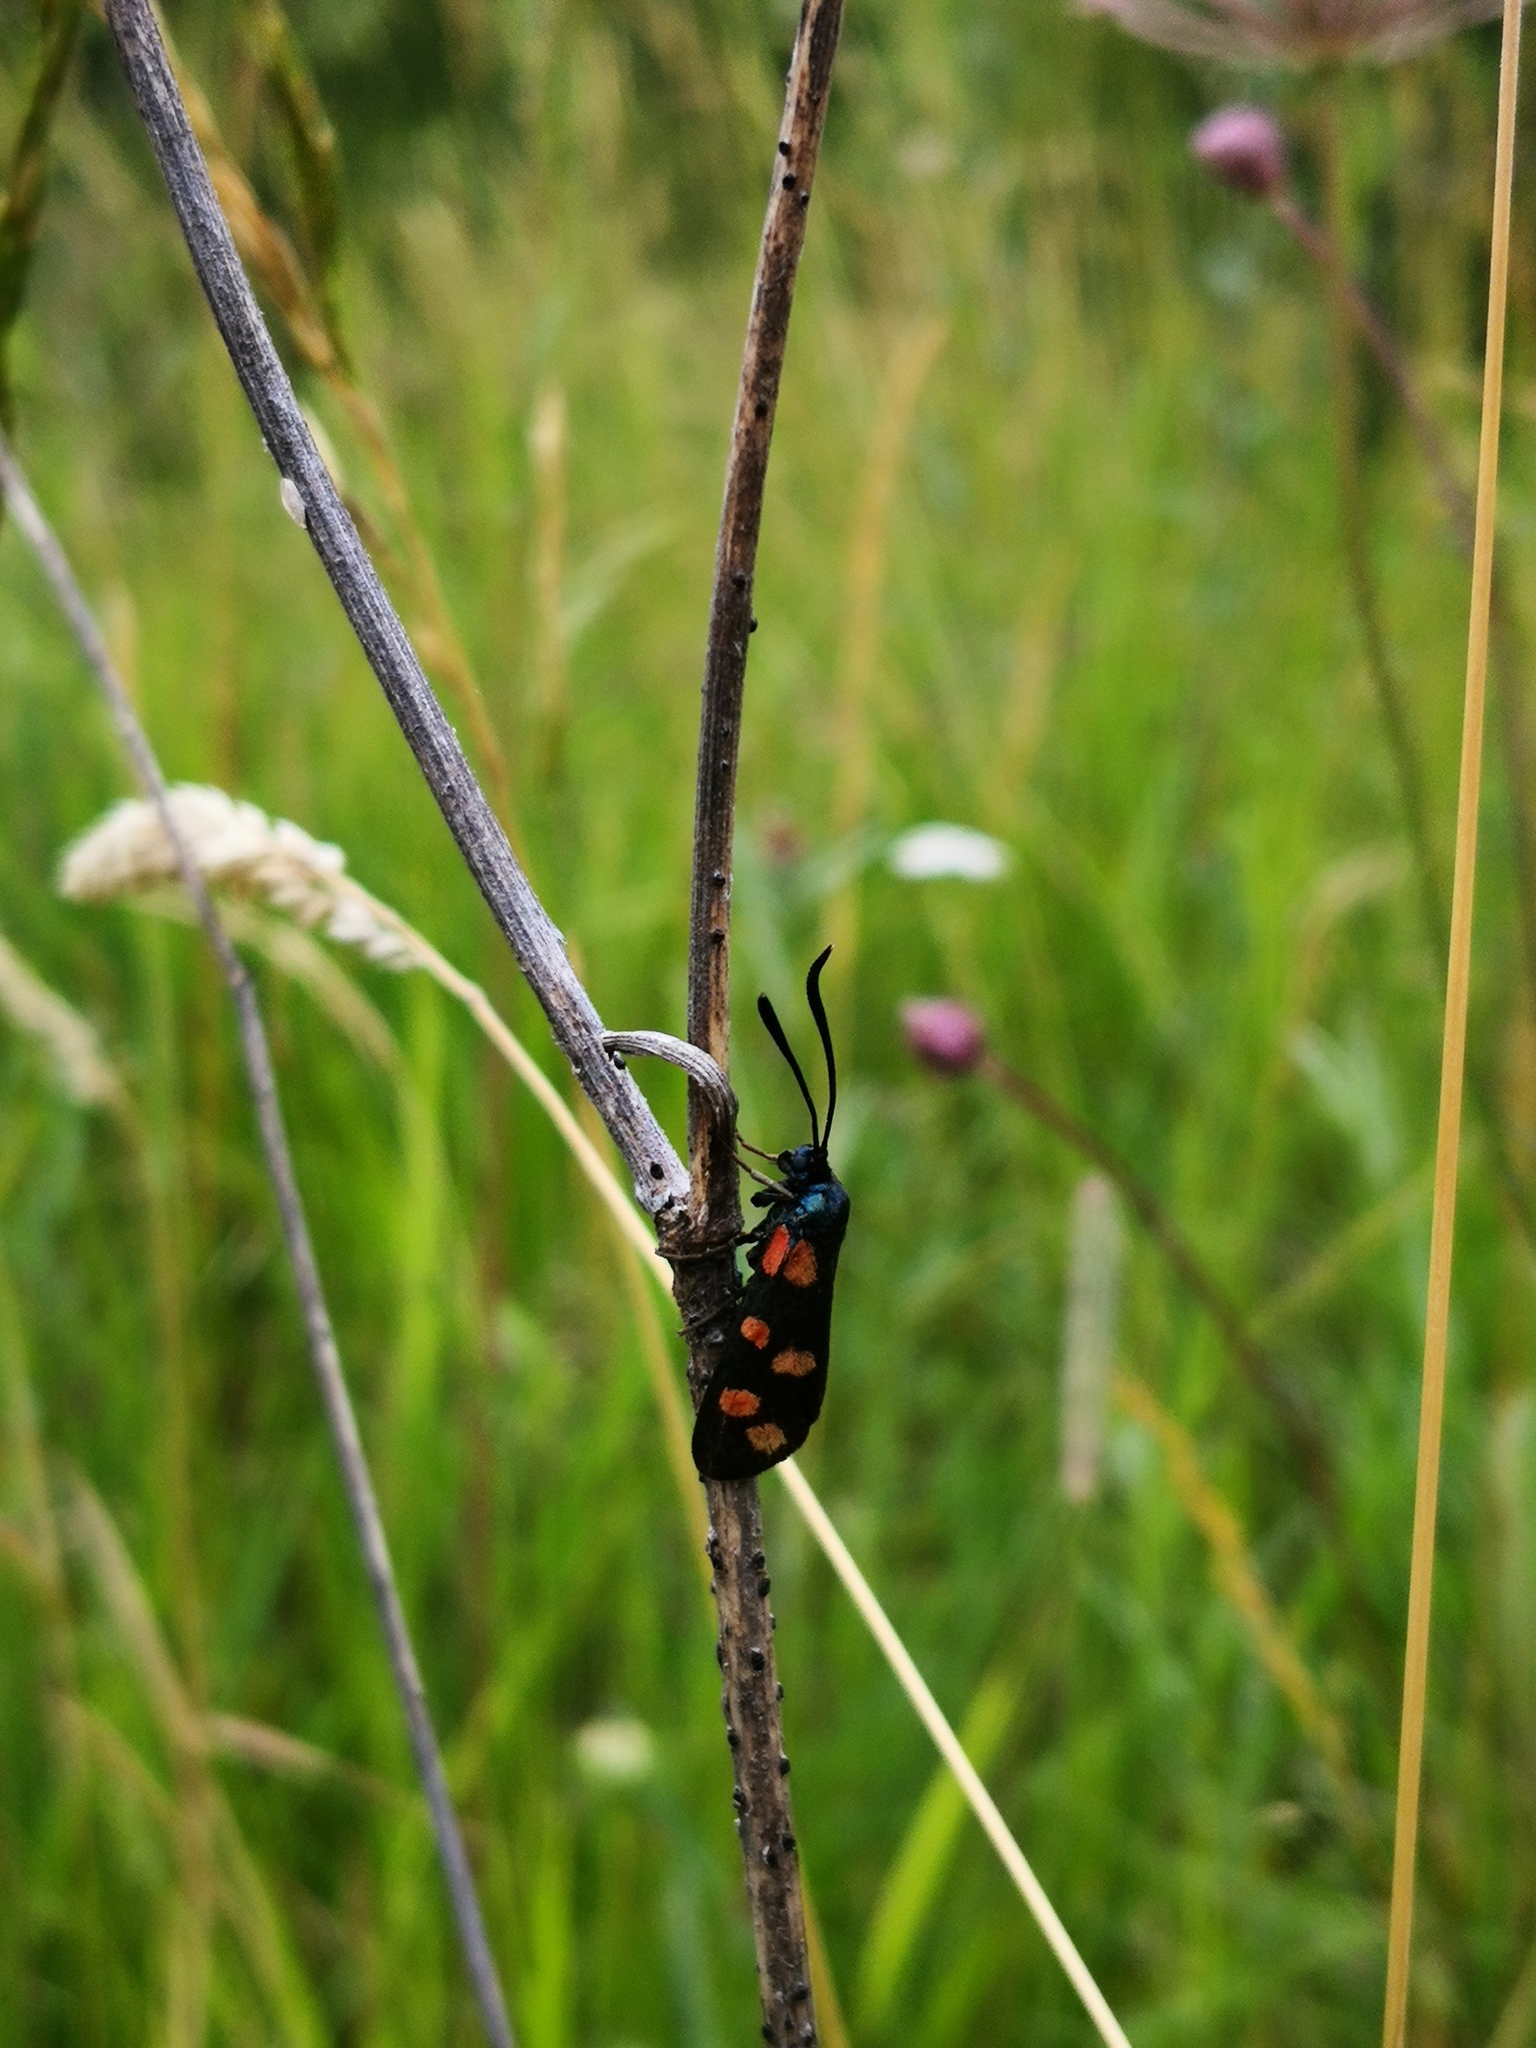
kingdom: Animalia
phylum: Arthropoda
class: Insecta
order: Lepidoptera
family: Zygaenidae
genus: Zygaena
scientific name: Zygaena filipendulae
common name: Six-spot burnet
